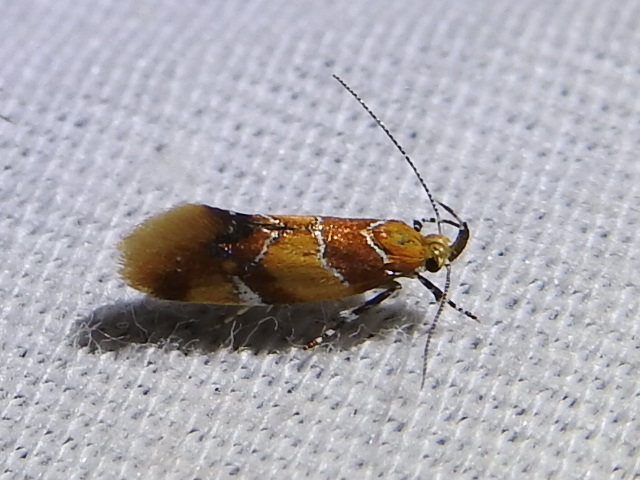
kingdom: Animalia
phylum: Arthropoda
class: Insecta
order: Lepidoptera
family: Oecophoridae
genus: Callima
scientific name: Callima argenticinctella
